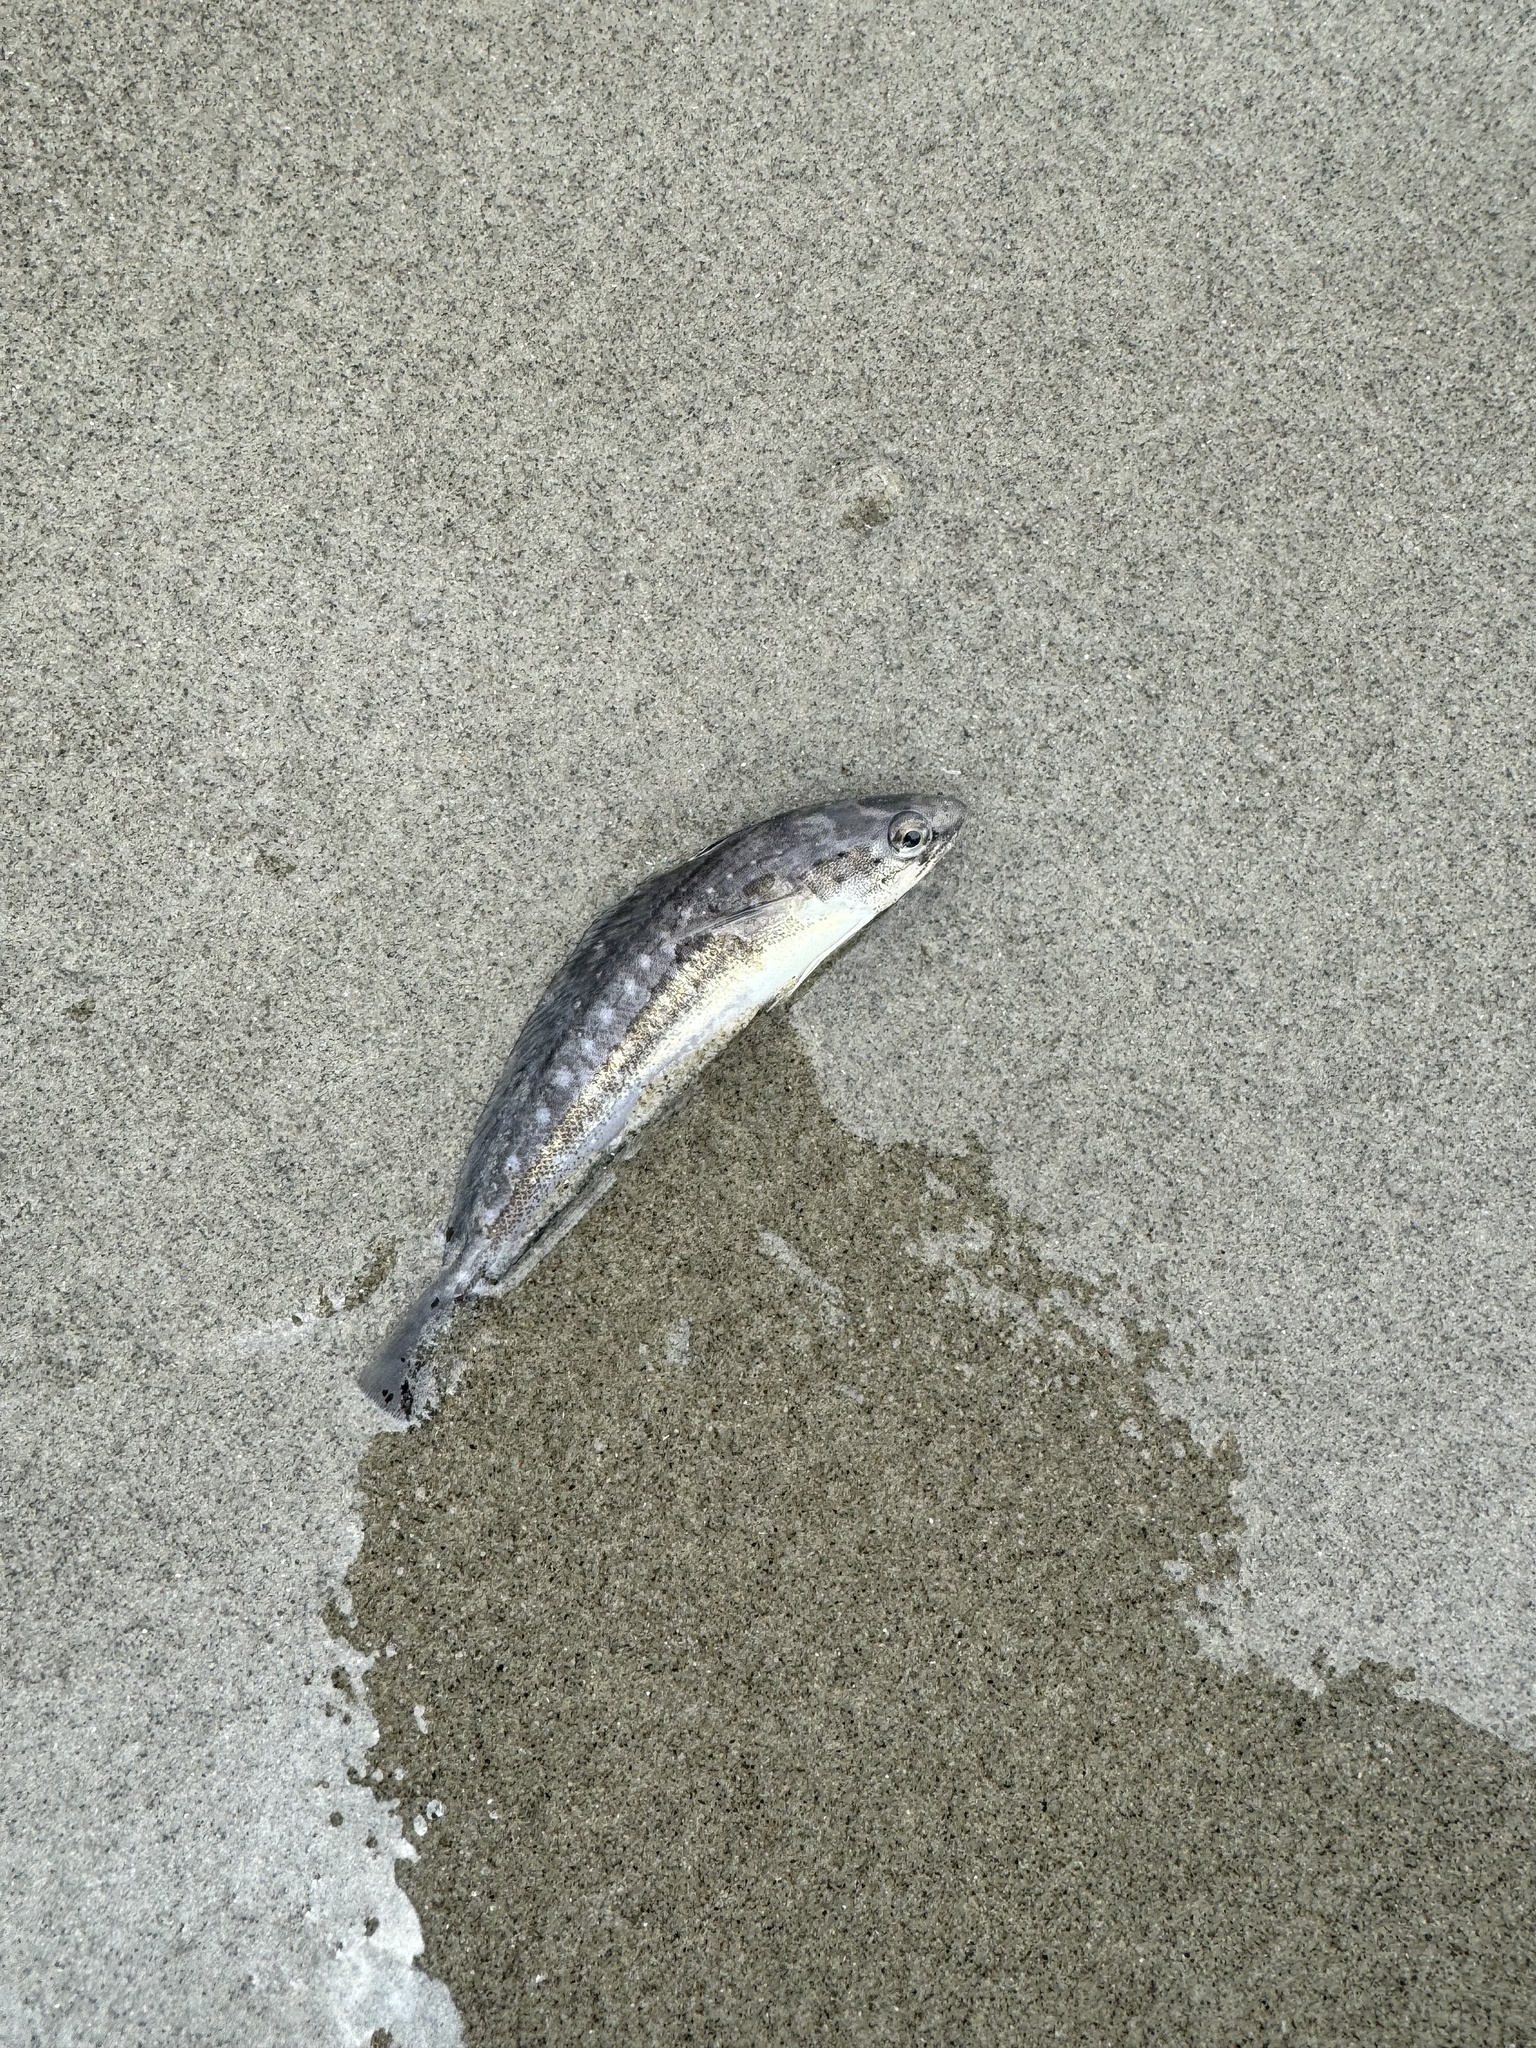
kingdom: Animalia
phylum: Chordata
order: Gadiformes
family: Phycidae
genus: Urophycis
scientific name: Urophycis regia
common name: Spotted codling
